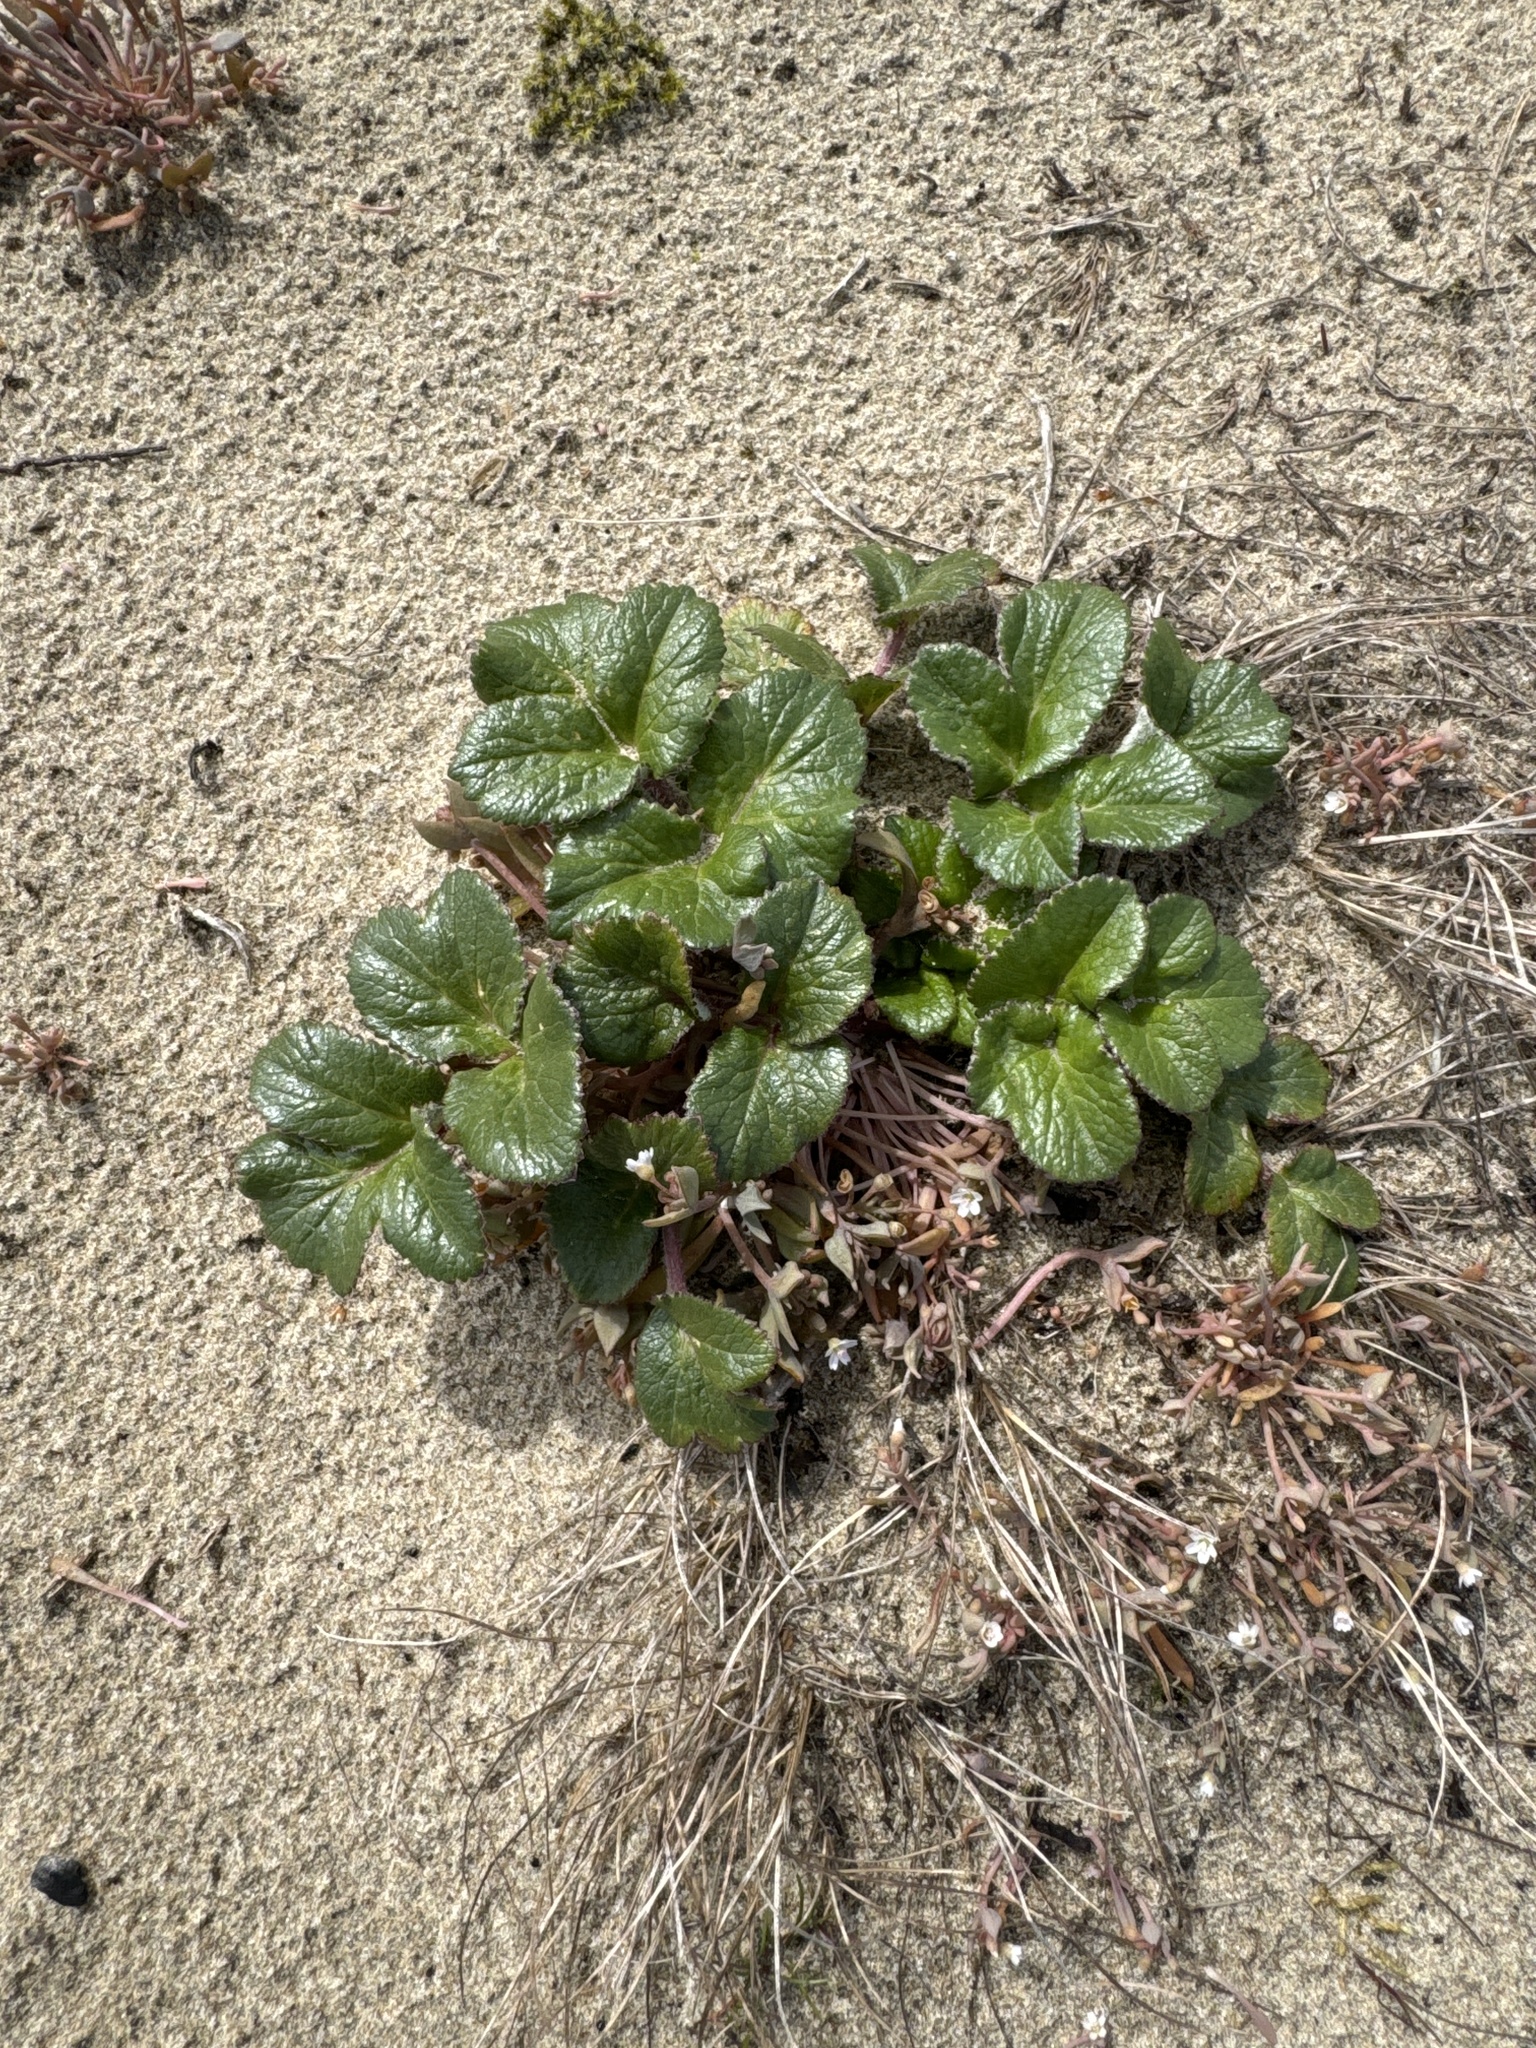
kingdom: Plantae
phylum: Tracheophyta
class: Magnoliopsida
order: Apiales
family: Apiaceae
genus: Glehnia
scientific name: Glehnia littoralis
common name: Beach silvertop
